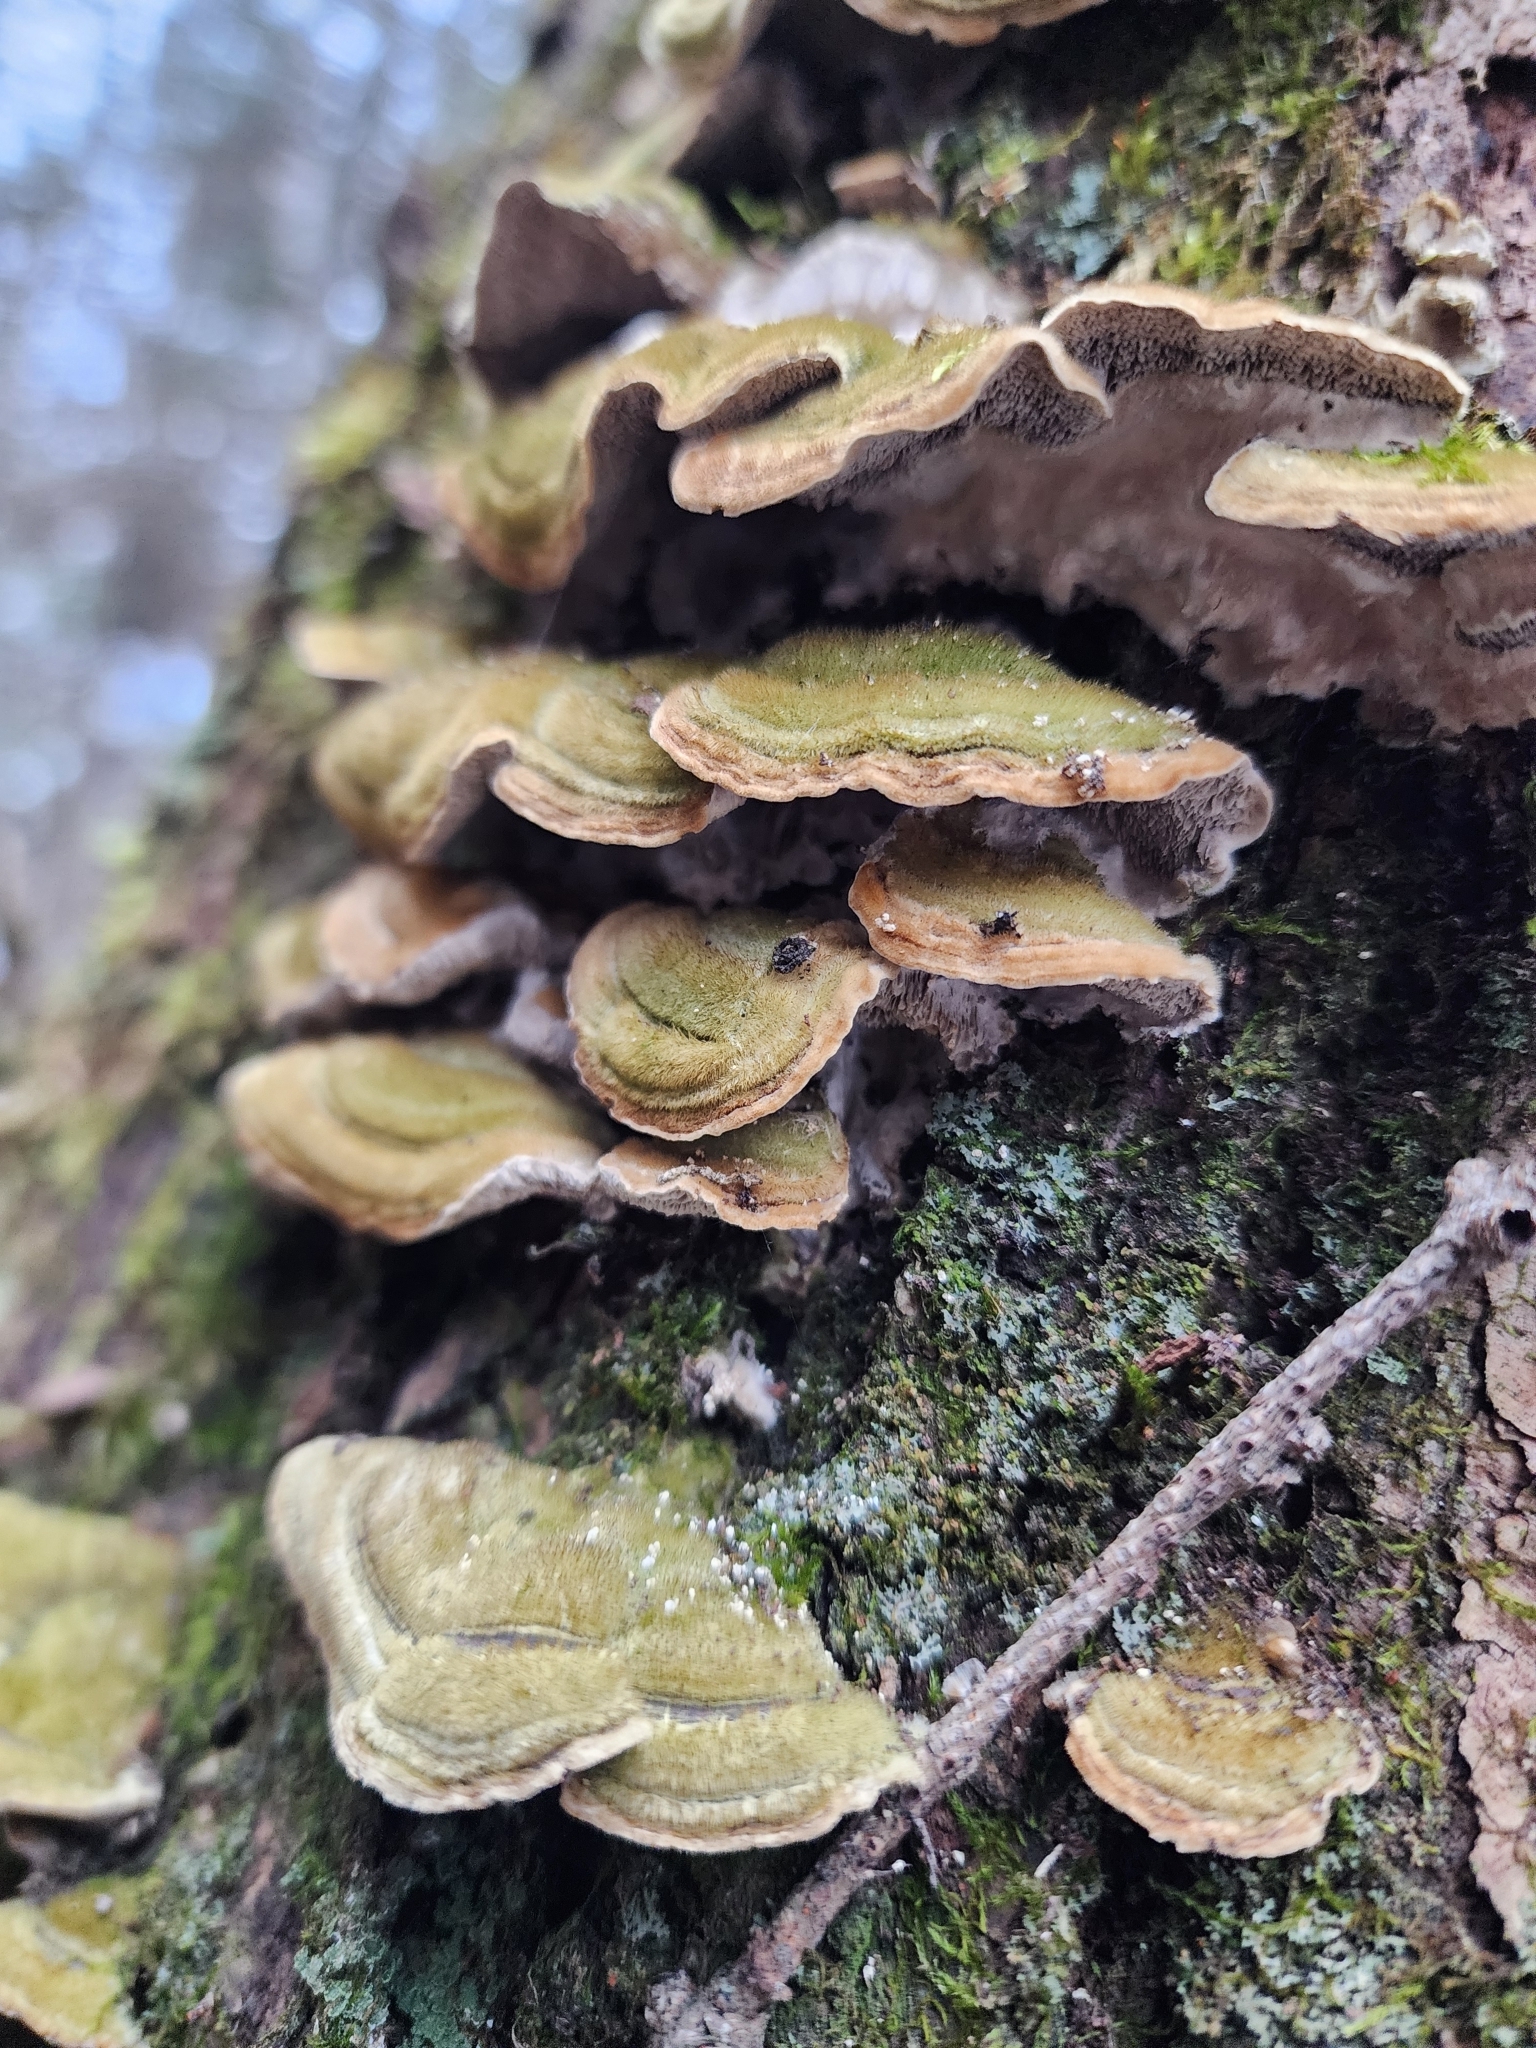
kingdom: Fungi
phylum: Basidiomycota
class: Agaricomycetes
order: Polyporales
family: Cerrenaceae
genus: Cerrena
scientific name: Cerrena unicolor
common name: Mossy maze polypore
